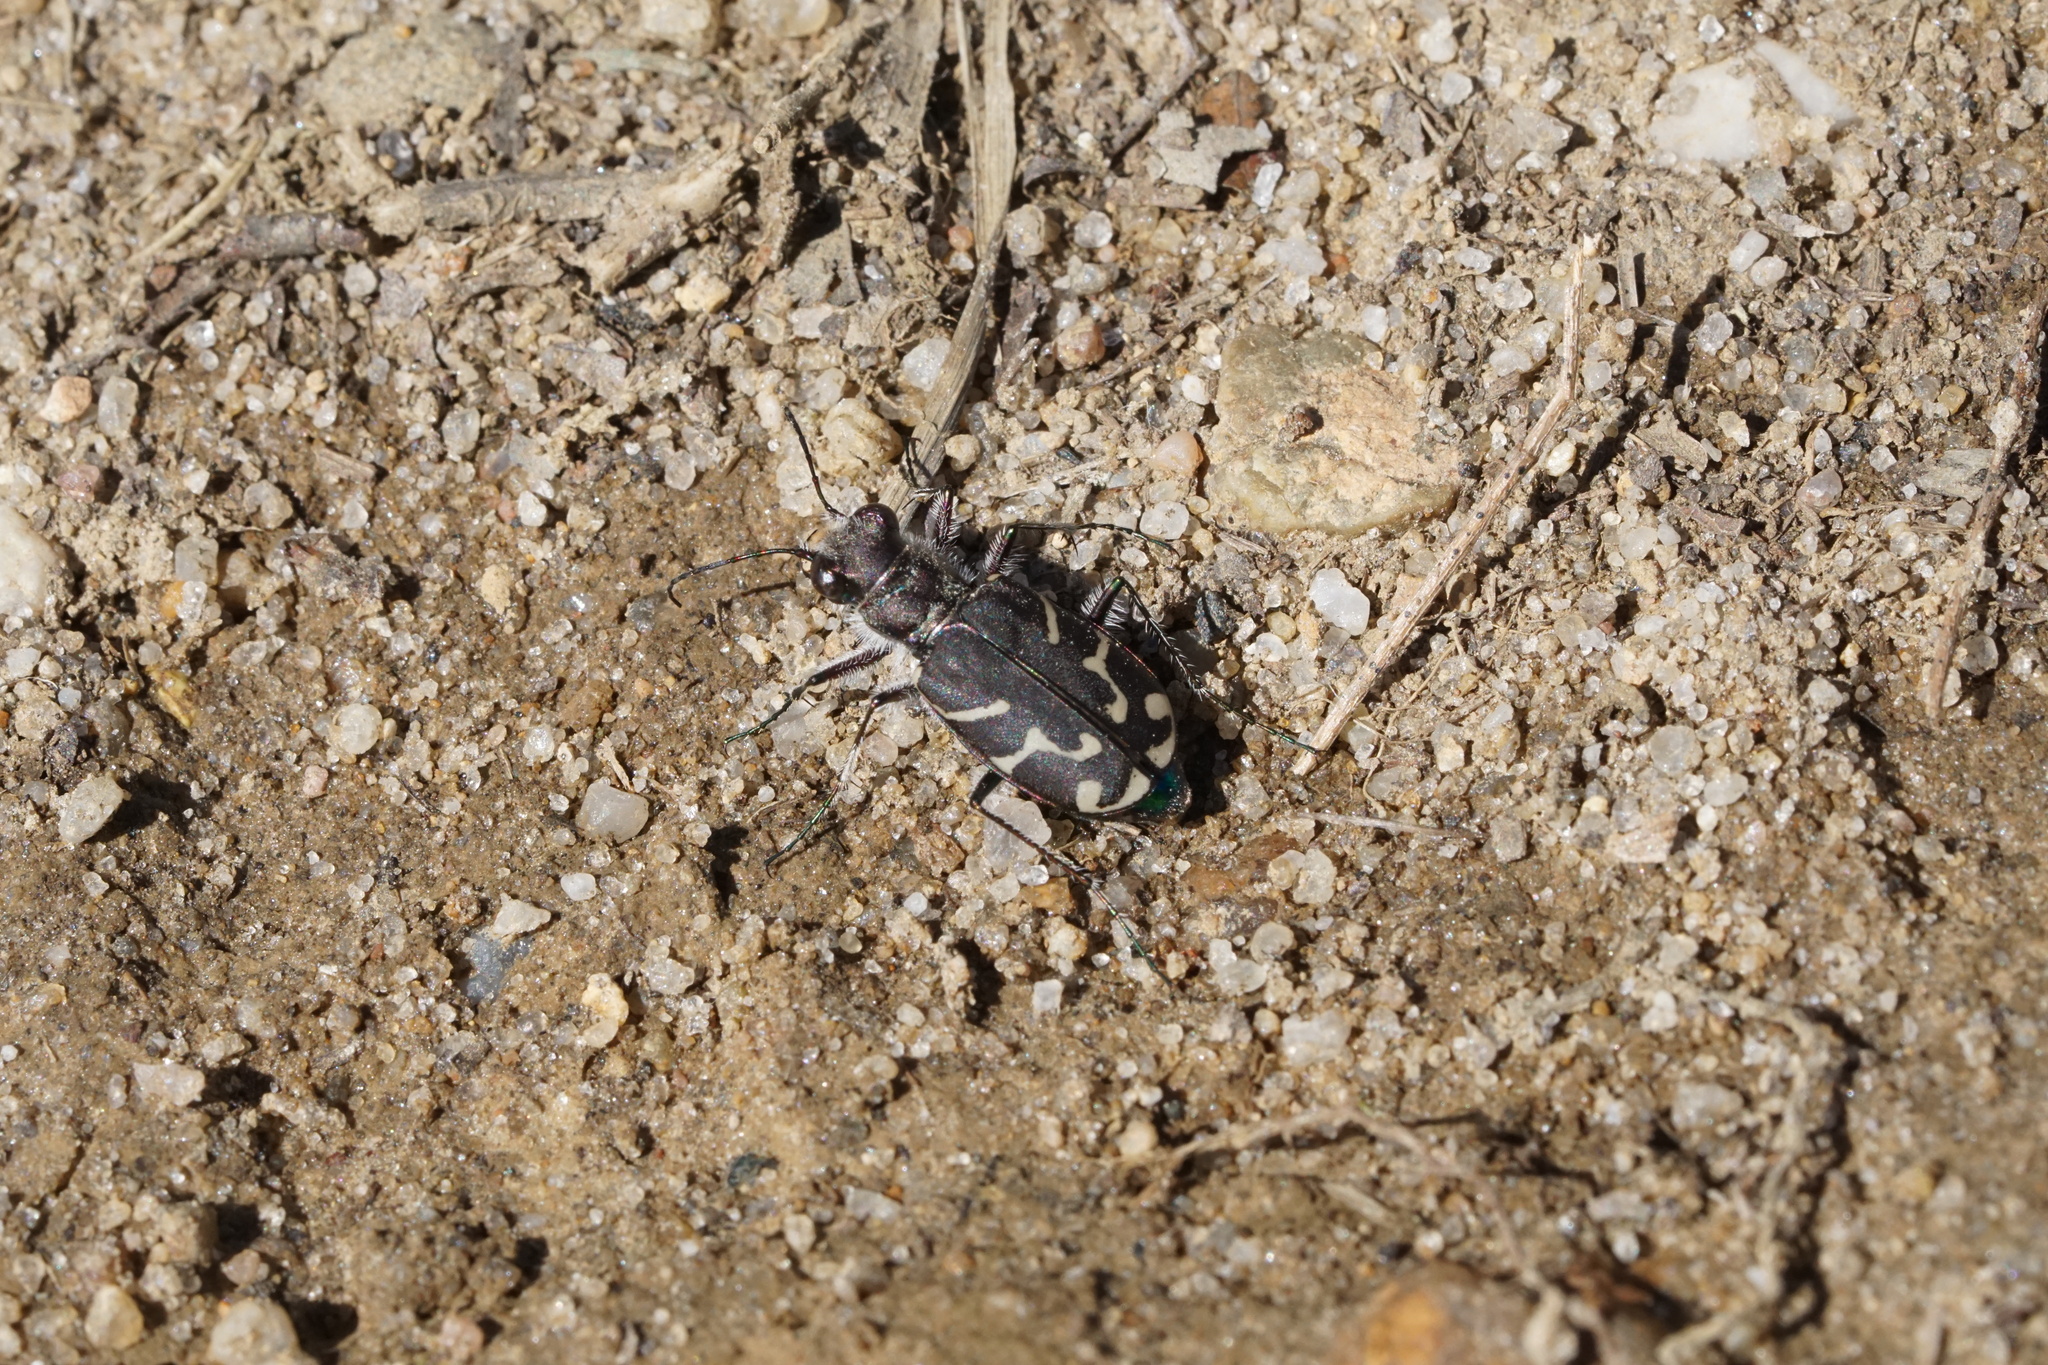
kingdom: Animalia
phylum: Arthropoda
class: Insecta
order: Coleoptera
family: Carabidae
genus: Cicindela
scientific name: Cicindela tranquebarica
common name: Oblique-lined tiger beetle
